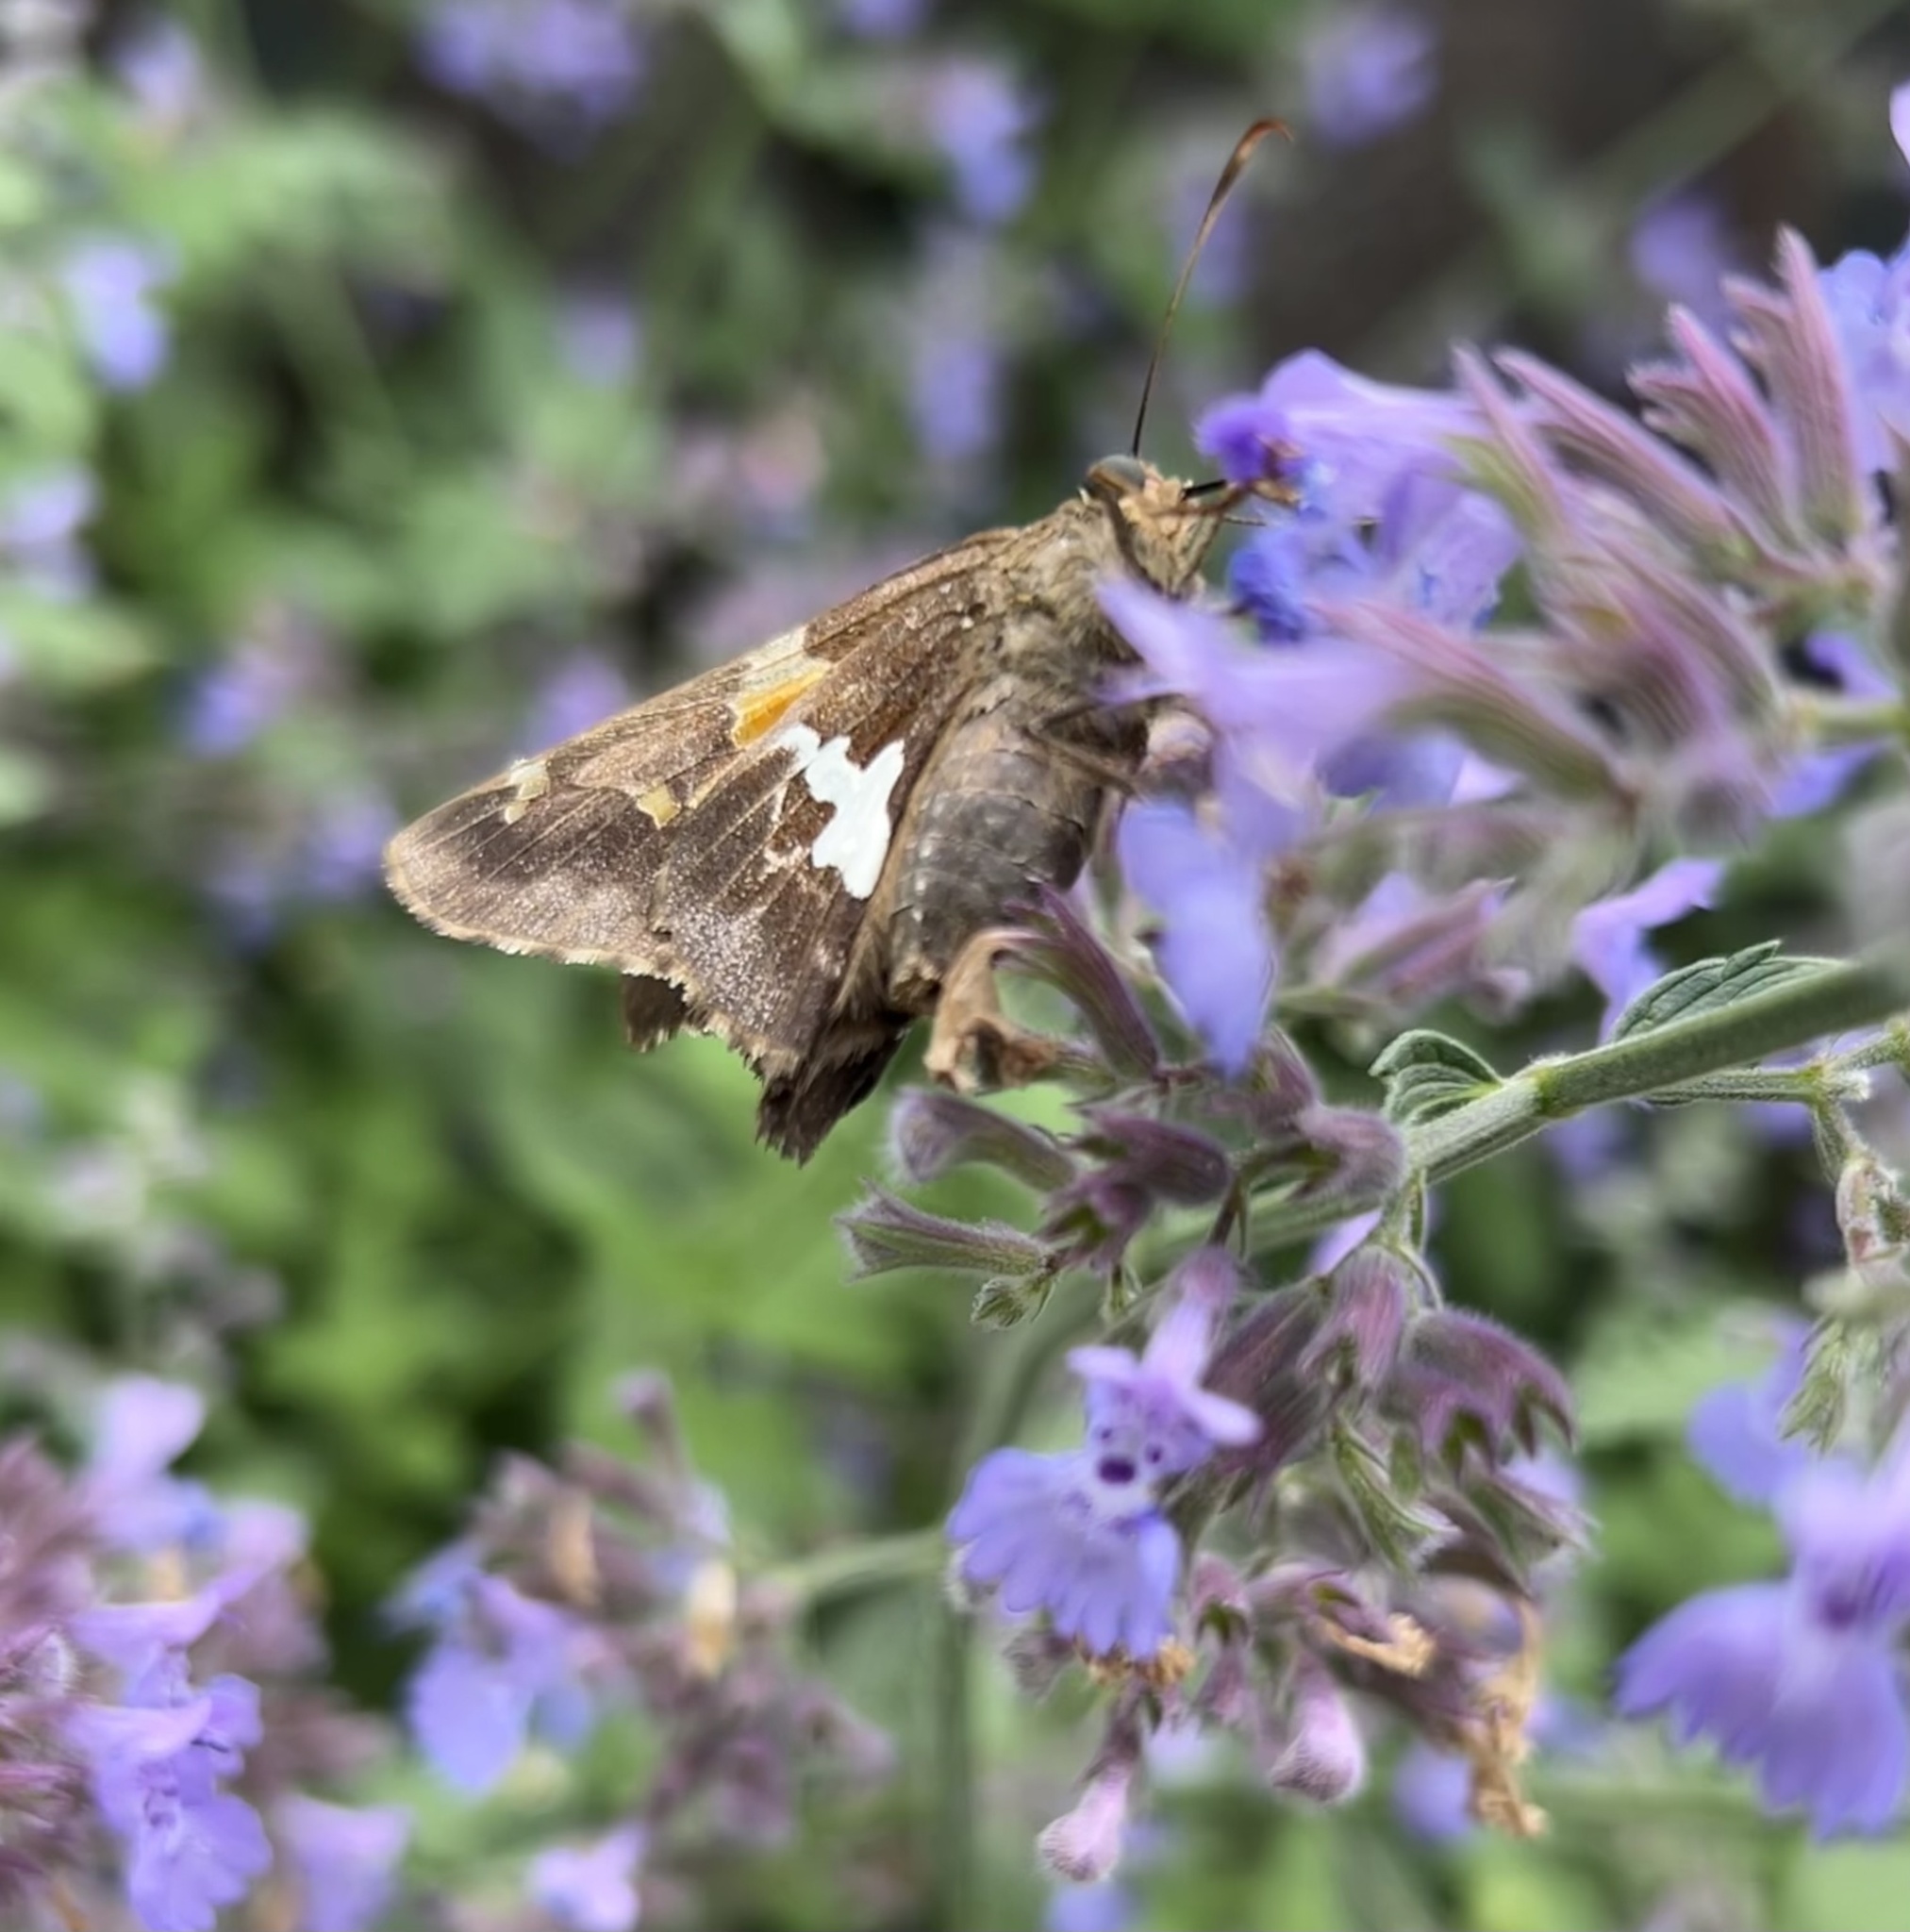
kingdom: Animalia
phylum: Arthropoda
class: Insecta
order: Lepidoptera
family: Hesperiidae
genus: Epargyreus
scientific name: Epargyreus clarus
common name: Silver-spotted skipper
